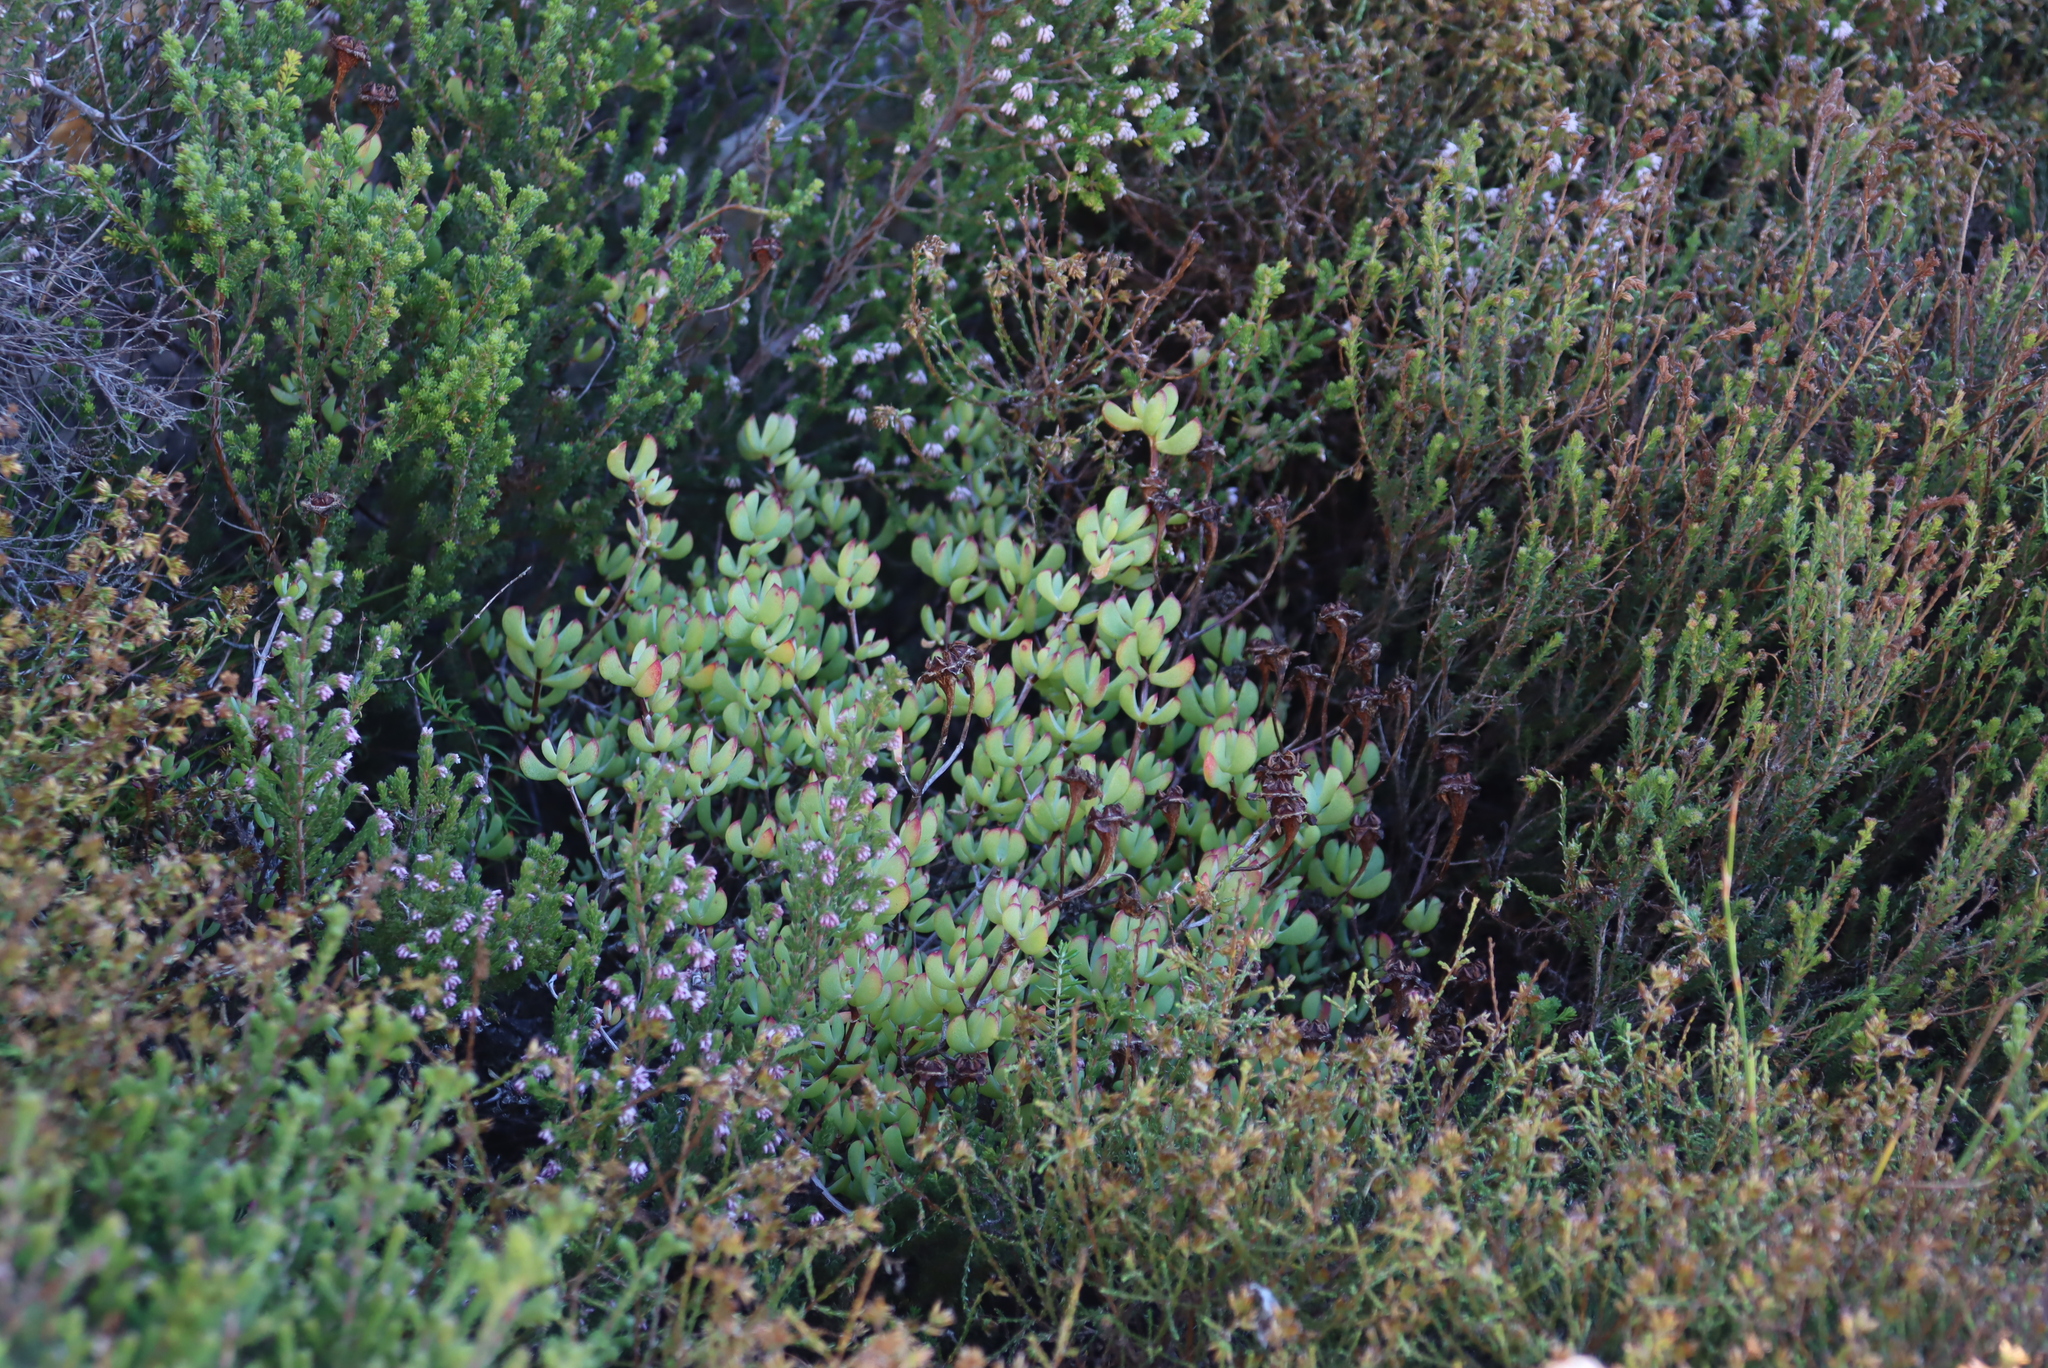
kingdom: Plantae
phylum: Tracheophyta
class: Magnoliopsida
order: Caryophyllales
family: Aizoaceae
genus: Oscularia
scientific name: Oscularia falciformis
